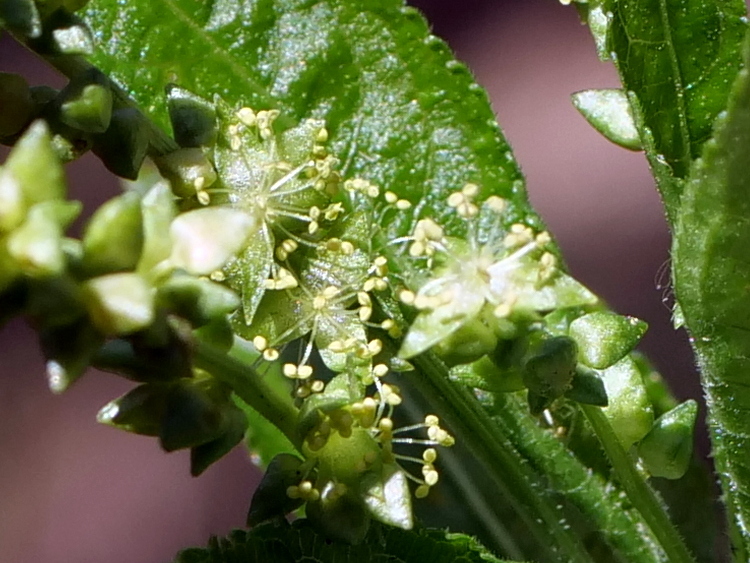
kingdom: Plantae
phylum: Tracheophyta
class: Magnoliopsida
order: Malpighiales
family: Euphorbiaceae
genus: Mercurialis
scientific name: Mercurialis perennis
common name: Dog mercury
